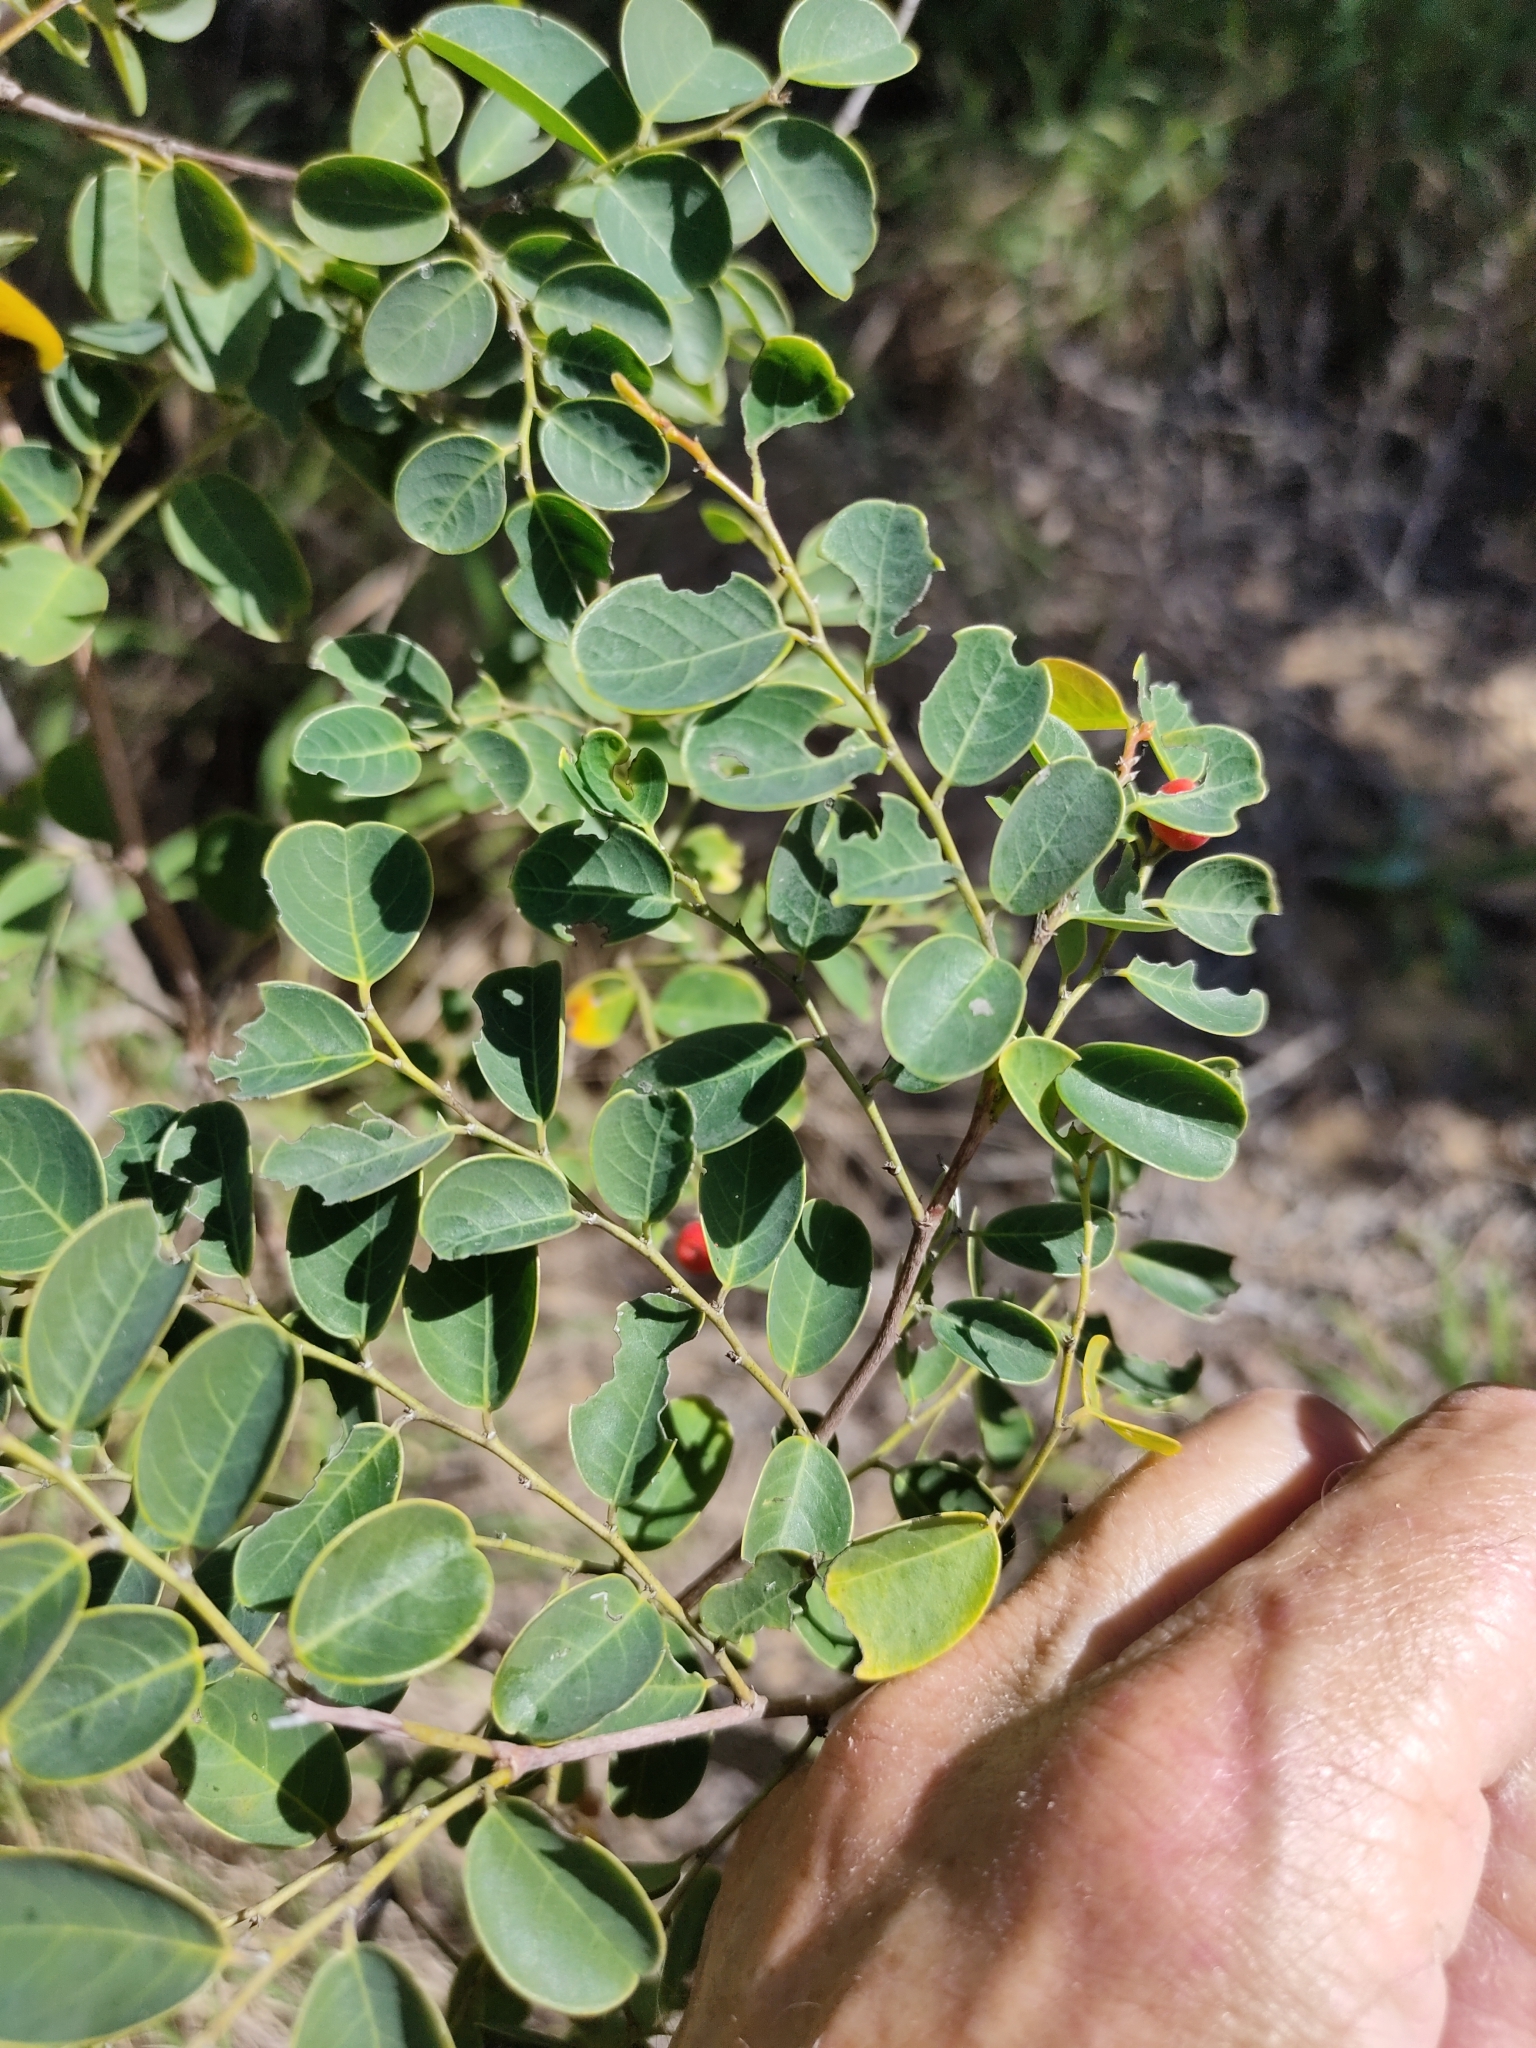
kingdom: Plantae
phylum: Tracheophyta
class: Magnoliopsida
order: Malpighiales
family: Phyllanthaceae
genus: Breynia
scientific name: Breynia oblongifolia
